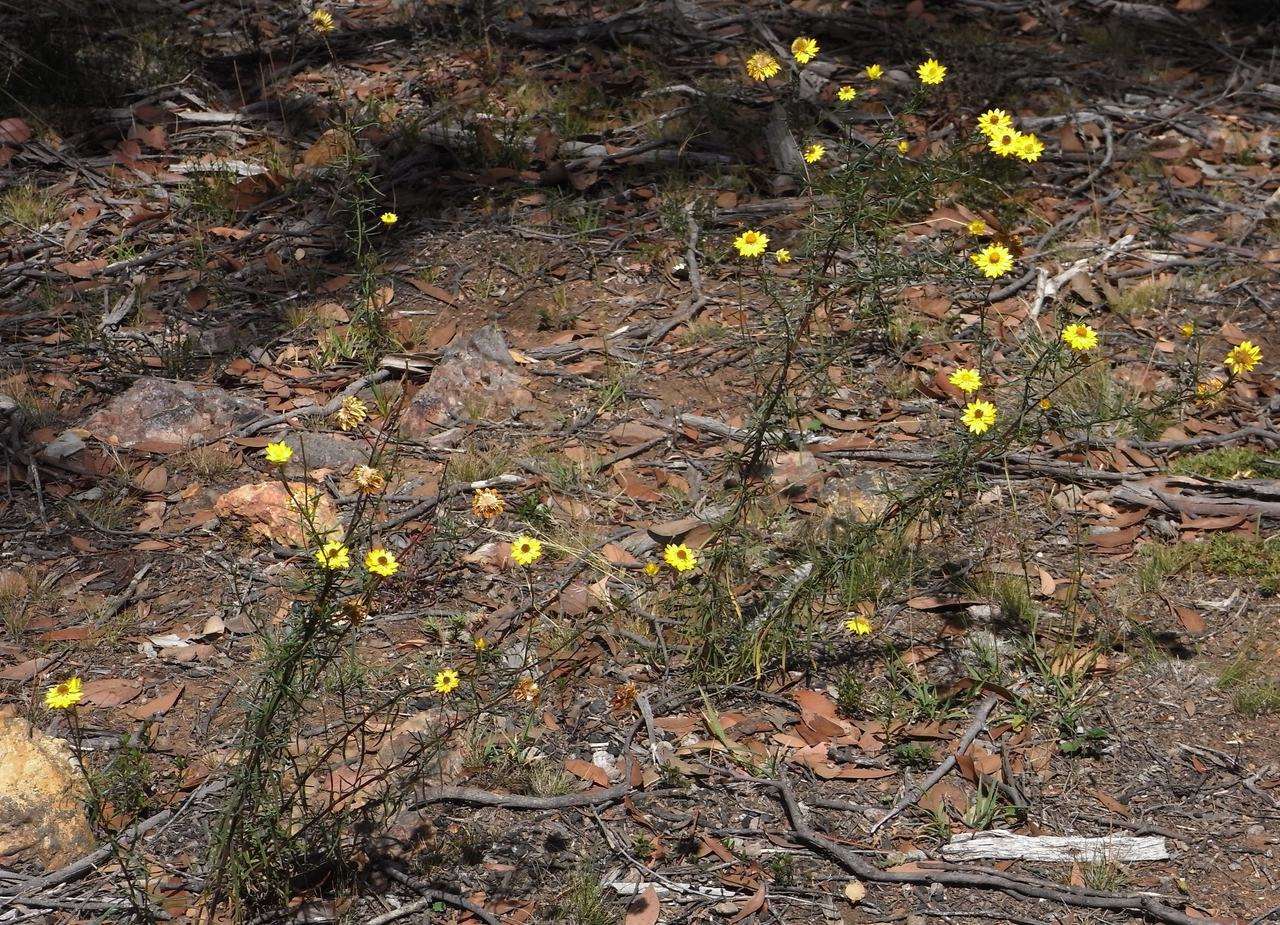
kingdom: Plantae
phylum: Tracheophyta
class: Magnoliopsida
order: Asterales
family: Asteraceae
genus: Xerochrysum
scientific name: Xerochrysum viscosum
